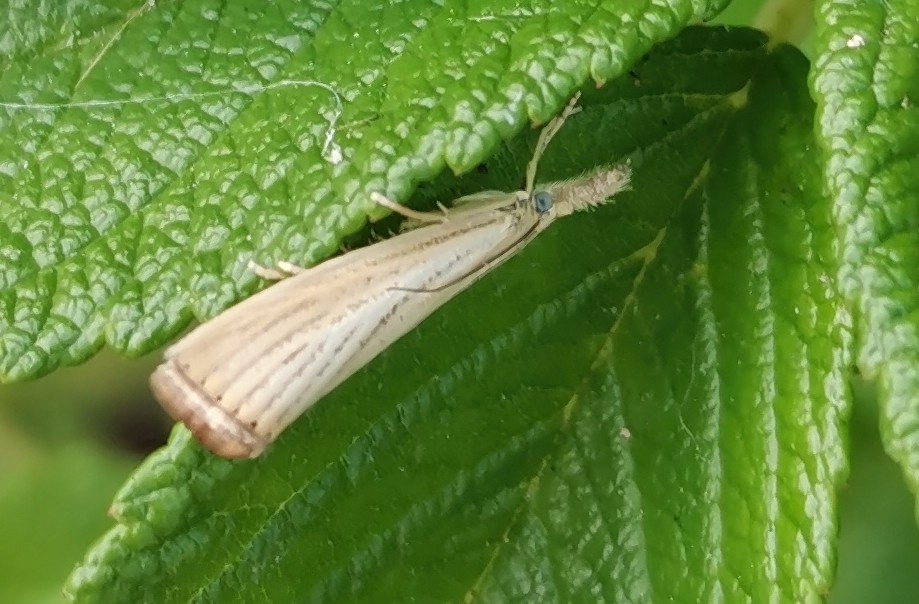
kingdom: Animalia
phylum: Arthropoda
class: Insecta
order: Lepidoptera
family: Crambidae
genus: Agriphila
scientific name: Agriphila straminella
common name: Straw grass-veneer
